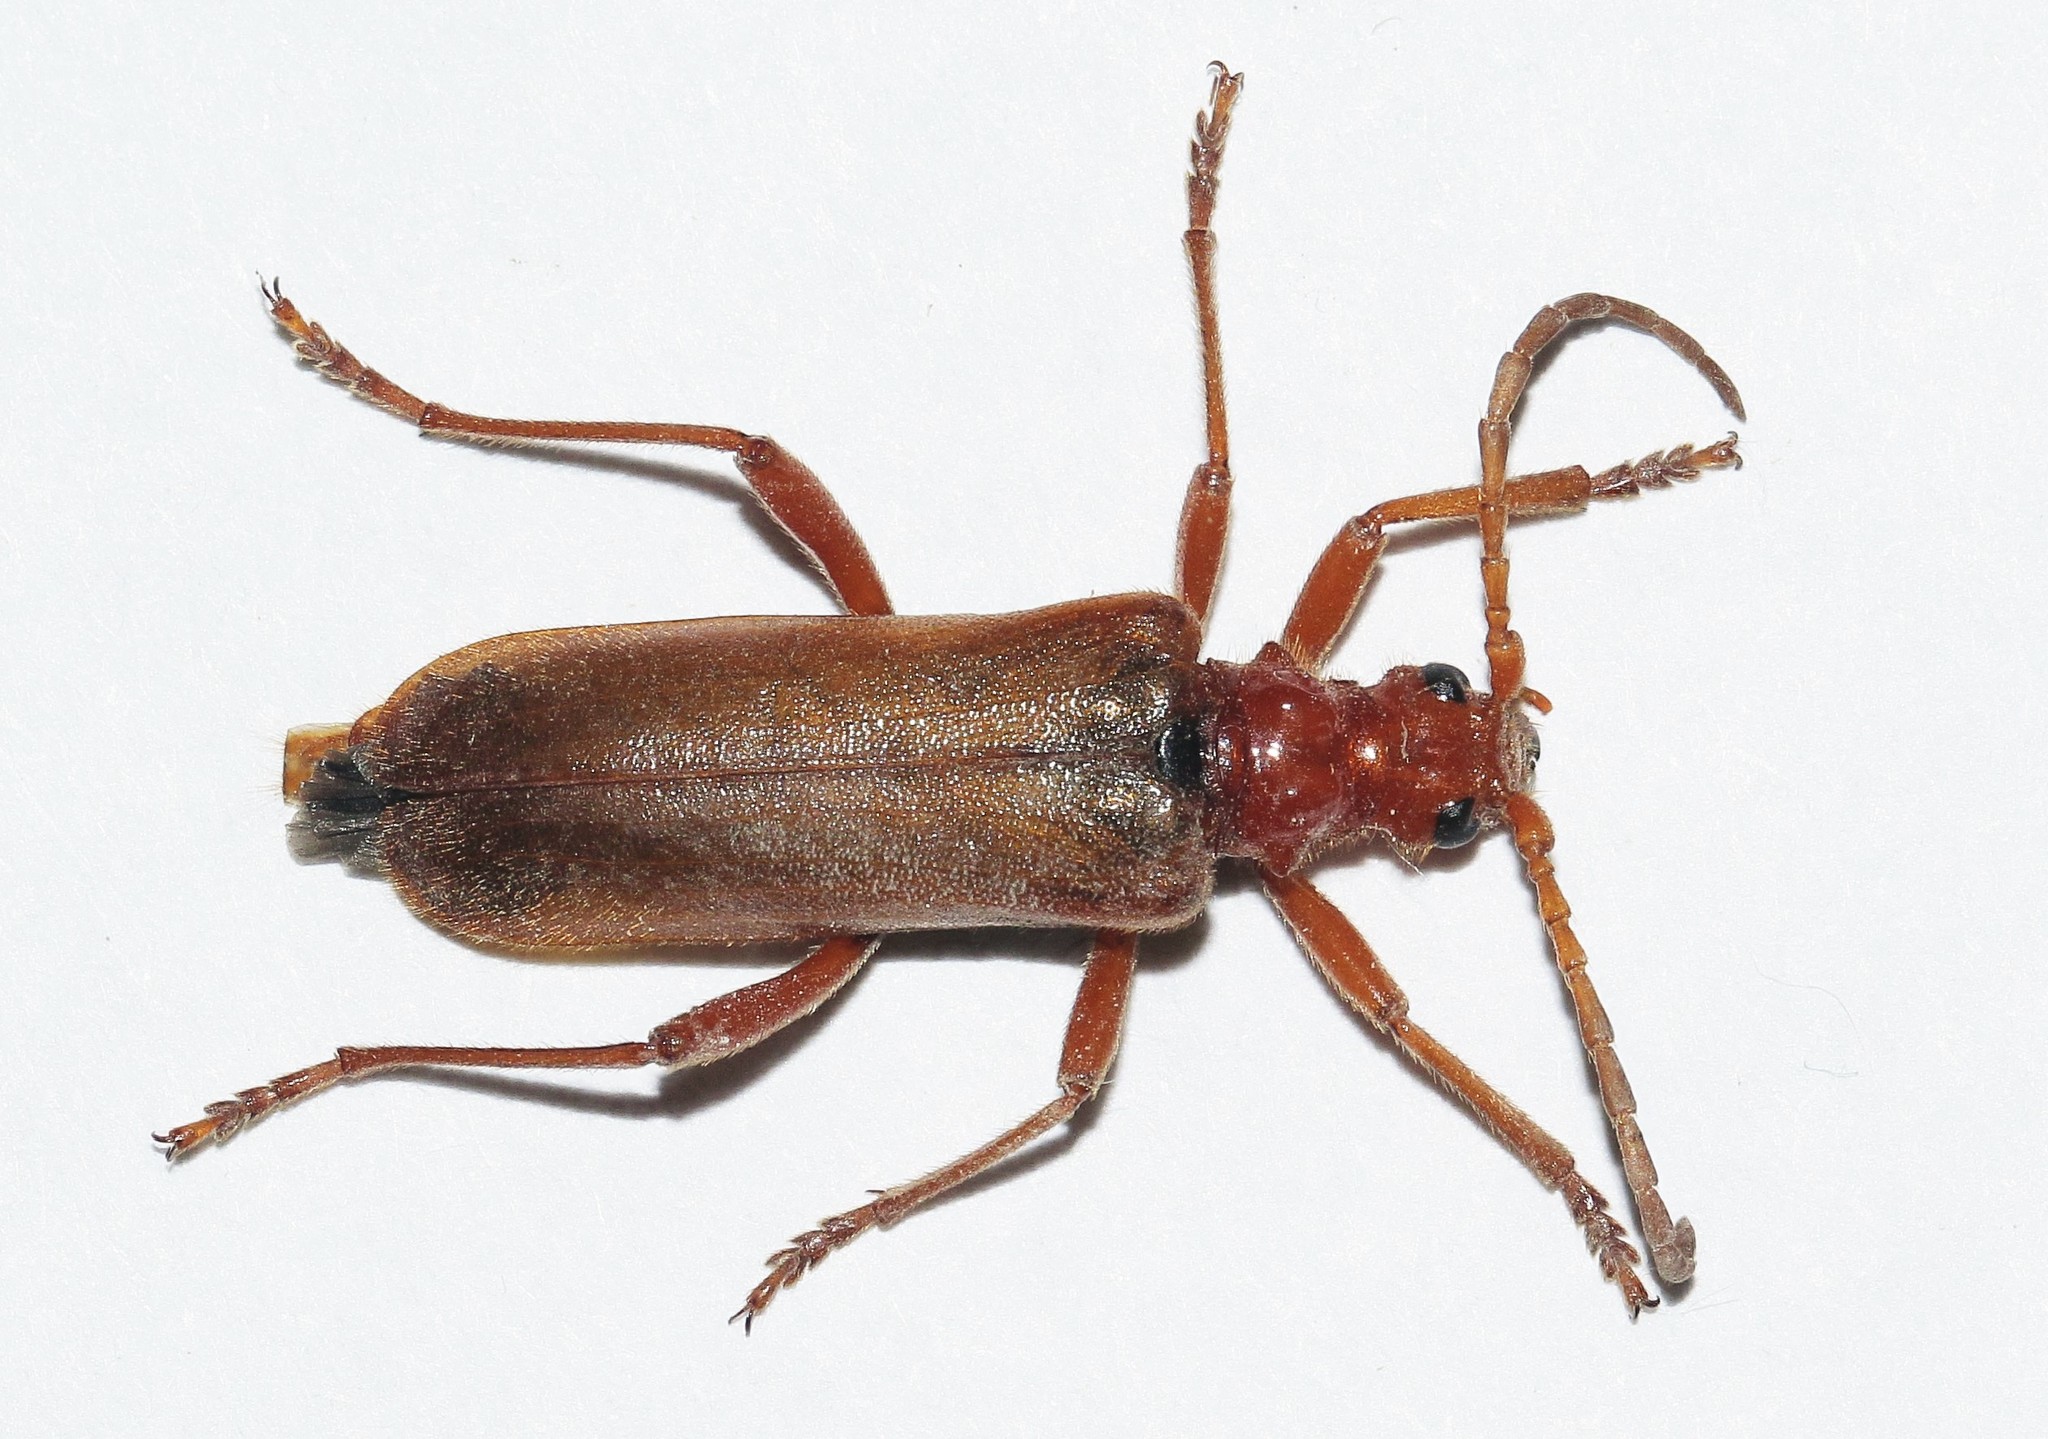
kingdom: Animalia
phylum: Arthropoda
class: Insecta
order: Coleoptera
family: Cerambycidae
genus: Rhamnusium
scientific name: Rhamnusium bicolor
